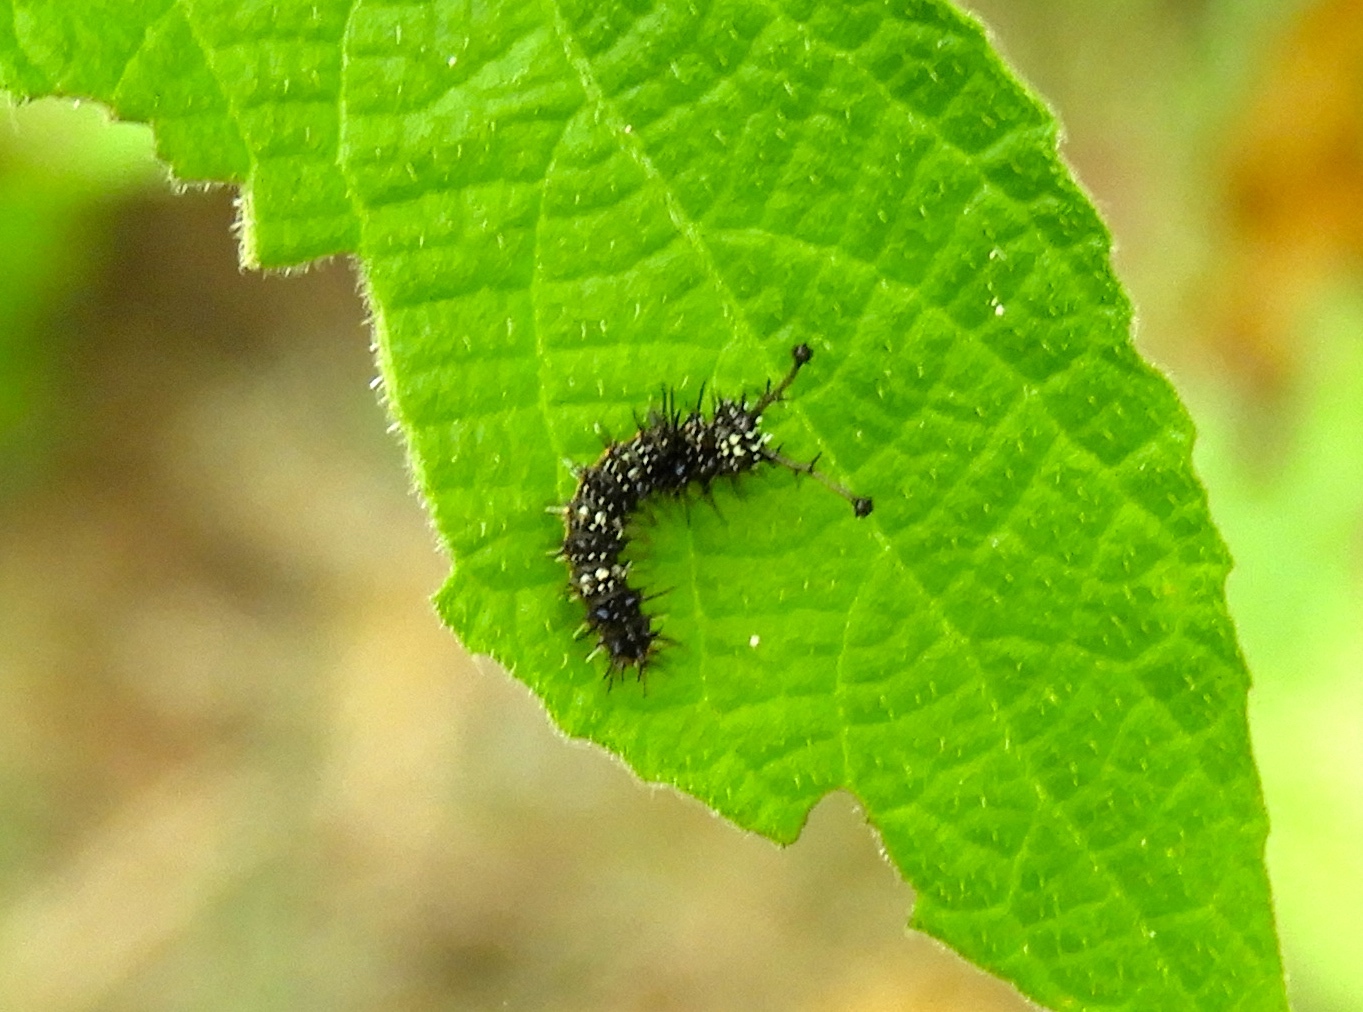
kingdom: Animalia
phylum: Arthropoda
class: Insecta
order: Lepidoptera
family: Nymphalidae
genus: Hamadryas
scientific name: Hamadryas
